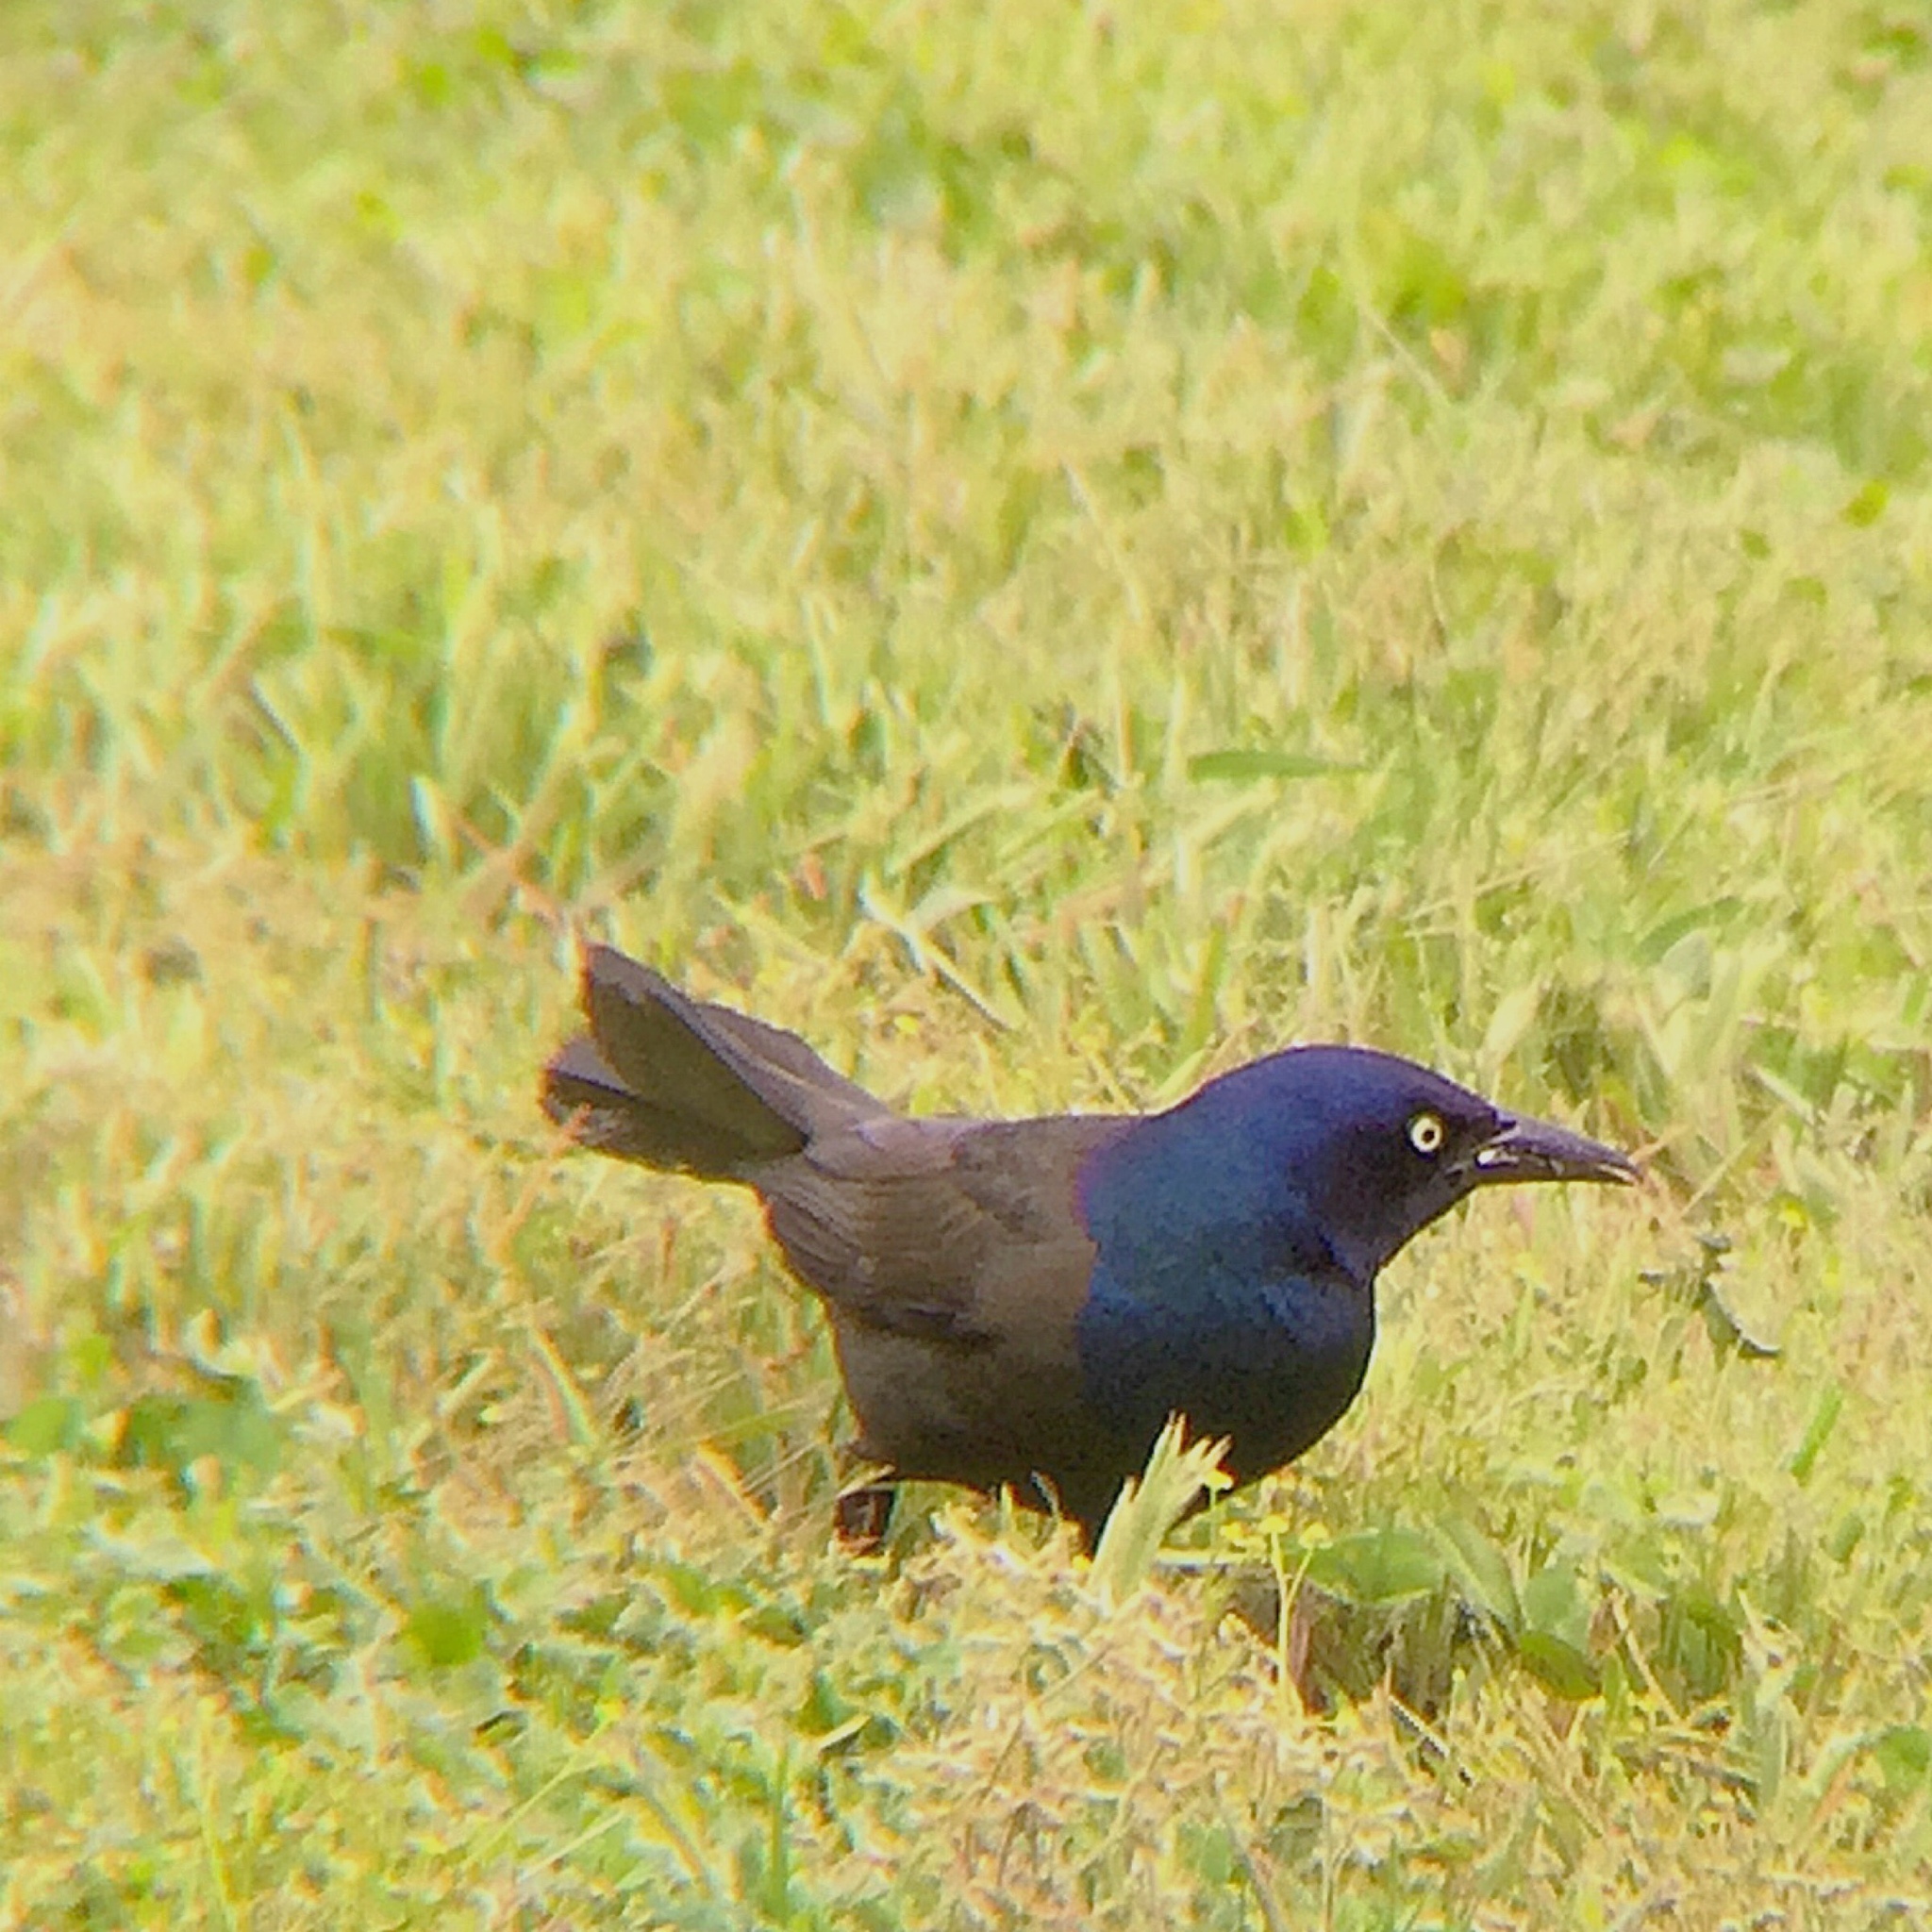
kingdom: Animalia
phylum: Chordata
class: Aves
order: Passeriformes
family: Icteridae
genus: Quiscalus
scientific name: Quiscalus quiscula
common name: Common grackle
